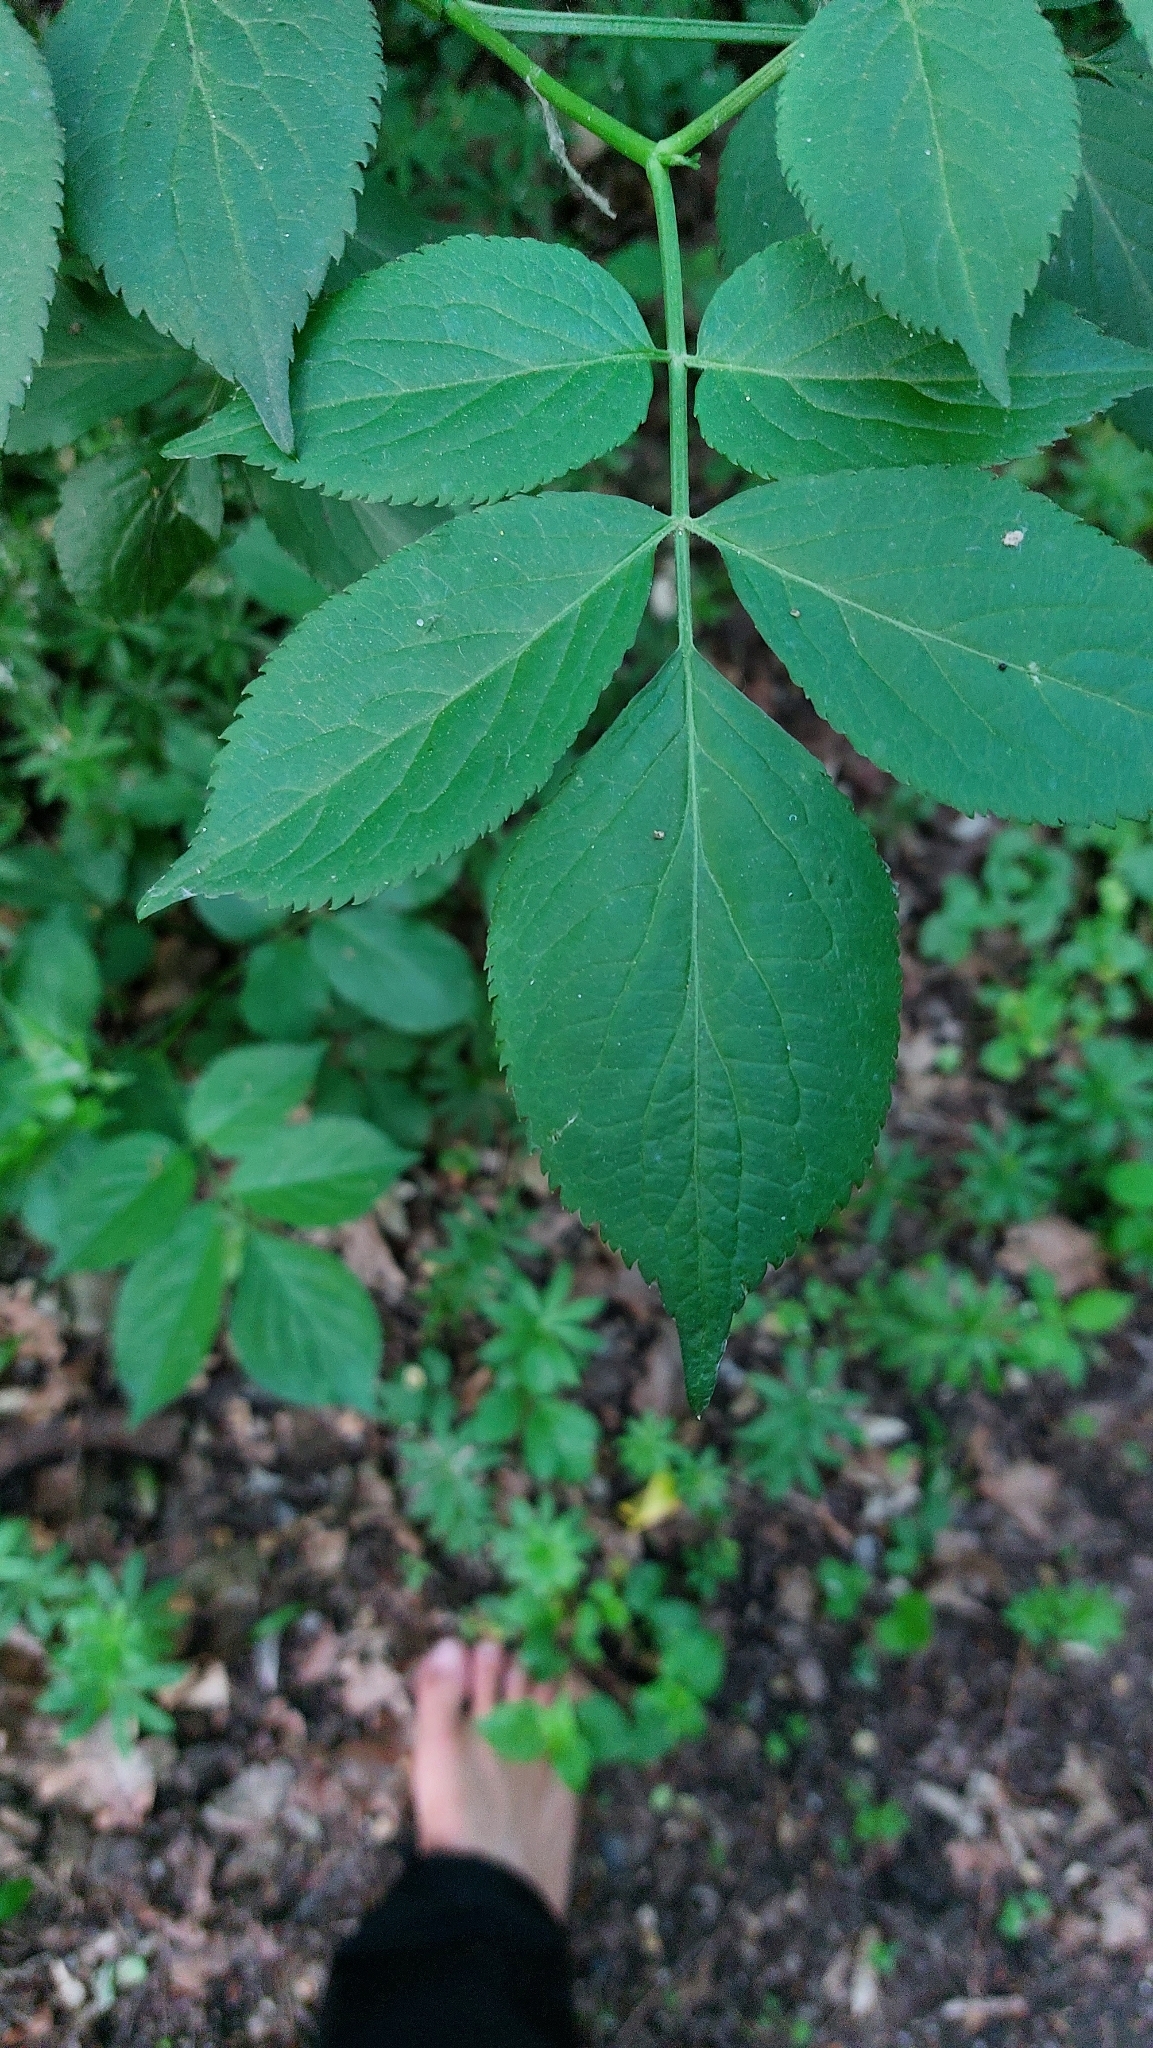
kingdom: Plantae
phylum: Tracheophyta
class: Magnoliopsida
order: Dipsacales
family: Viburnaceae
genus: Sambucus
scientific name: Sambucus nigra
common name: Elder
